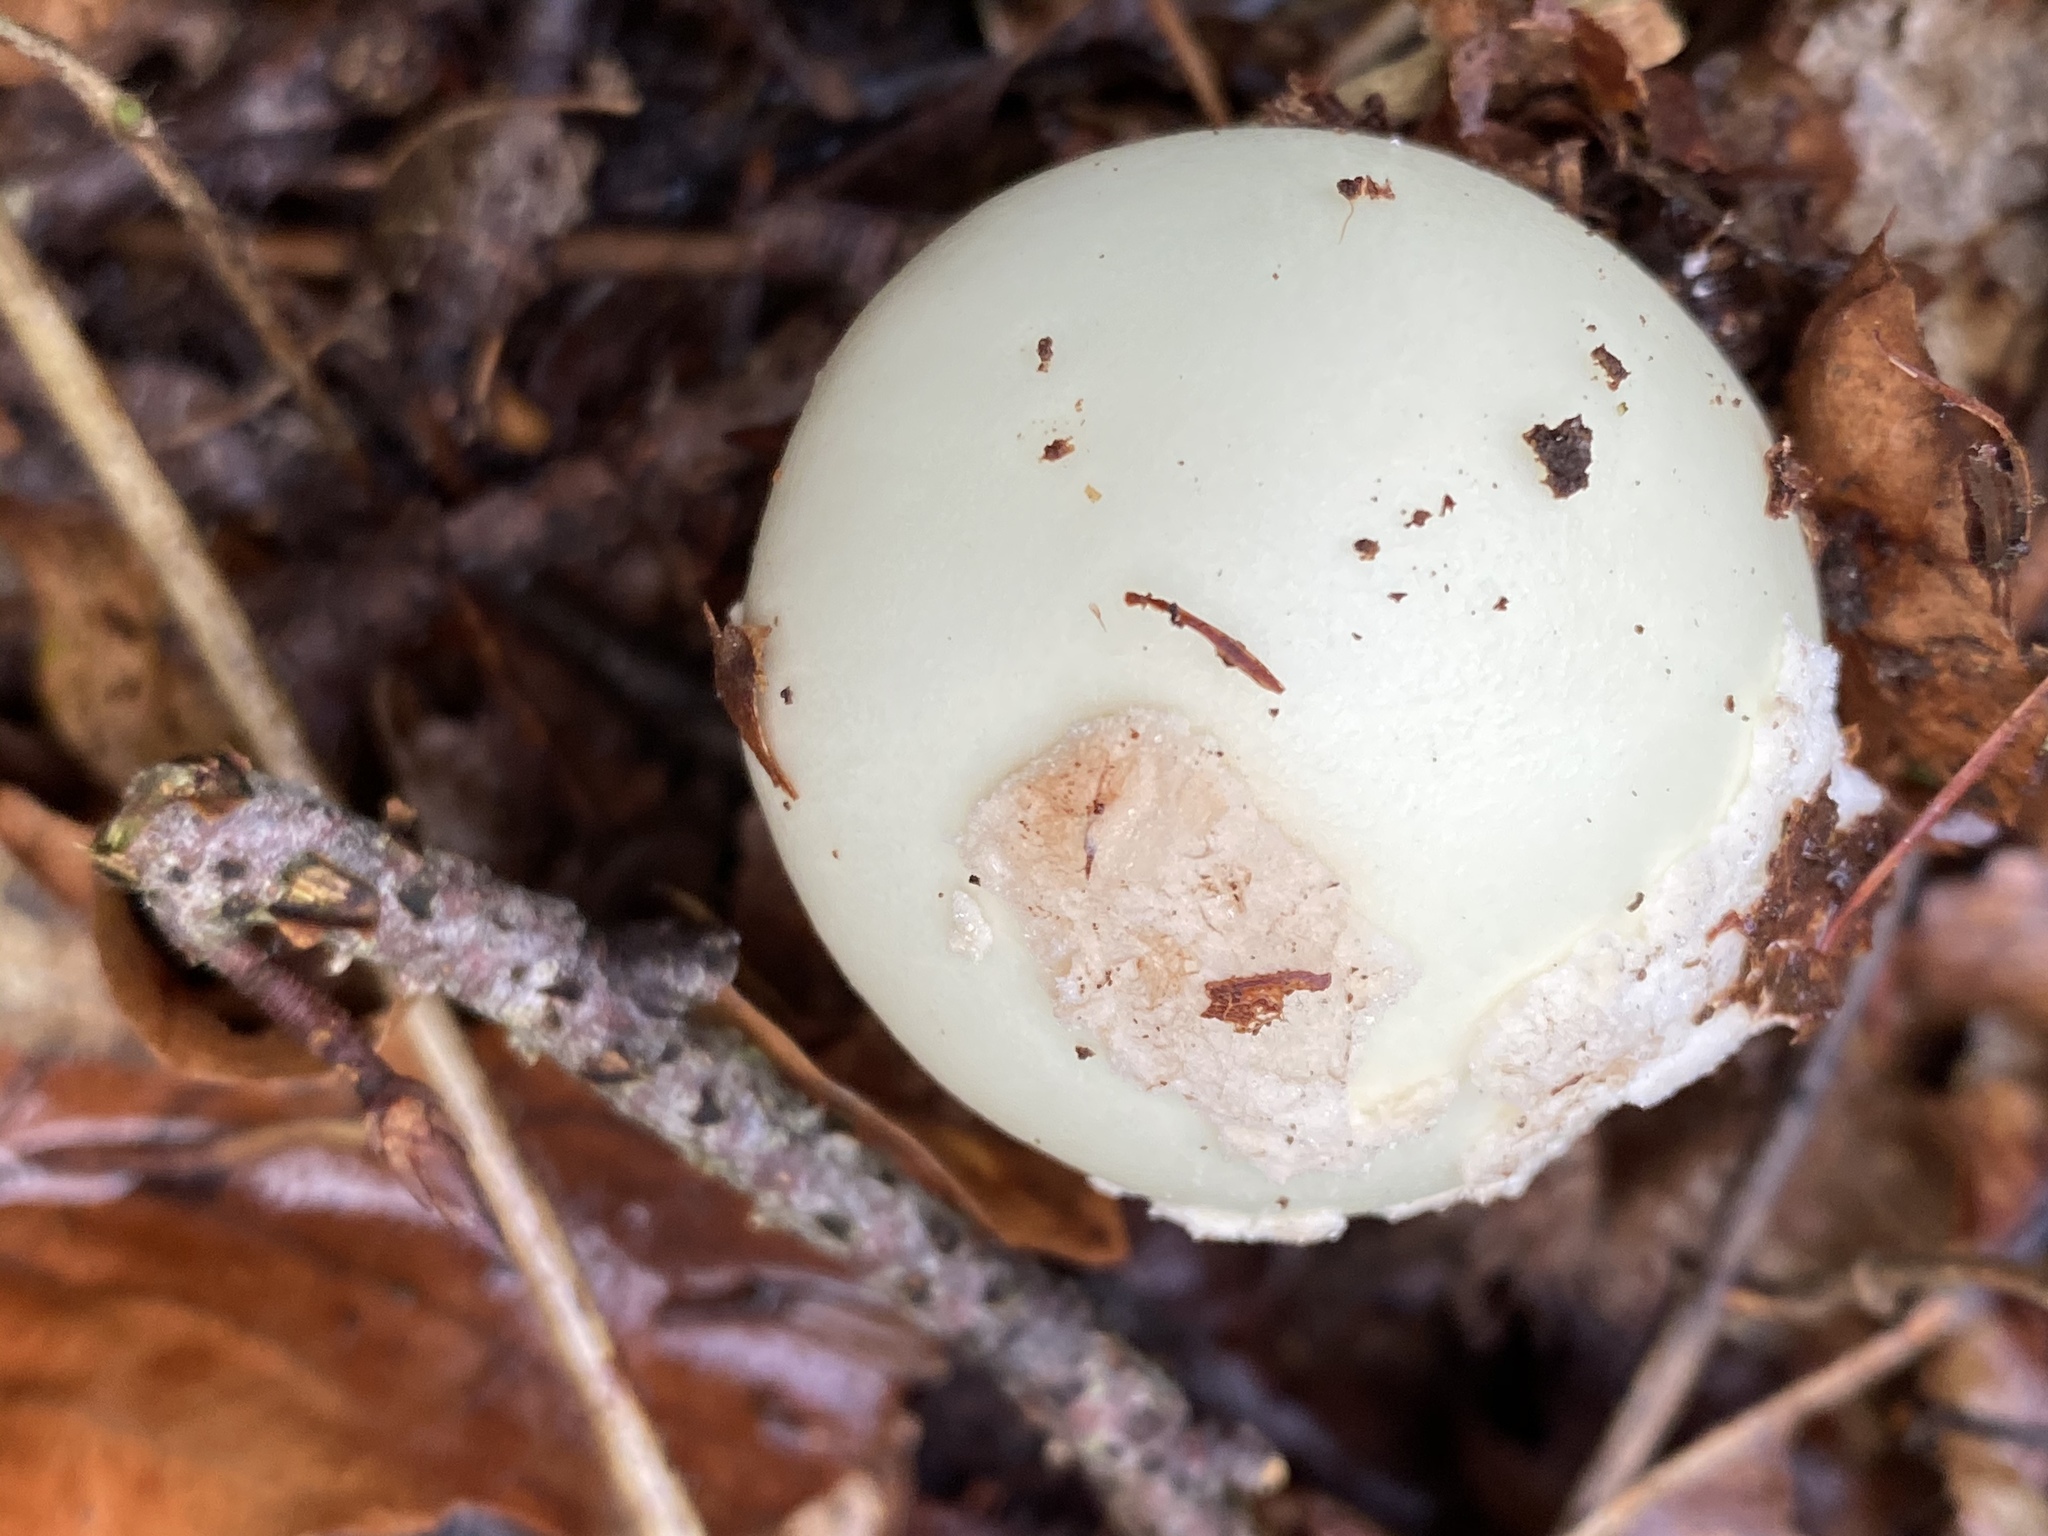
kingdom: Fungi
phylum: Basidiomycota
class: Agaricomycetes
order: Agaricales
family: Amanitaceae
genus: Amanita
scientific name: Amanita citrina
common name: False death-cap
